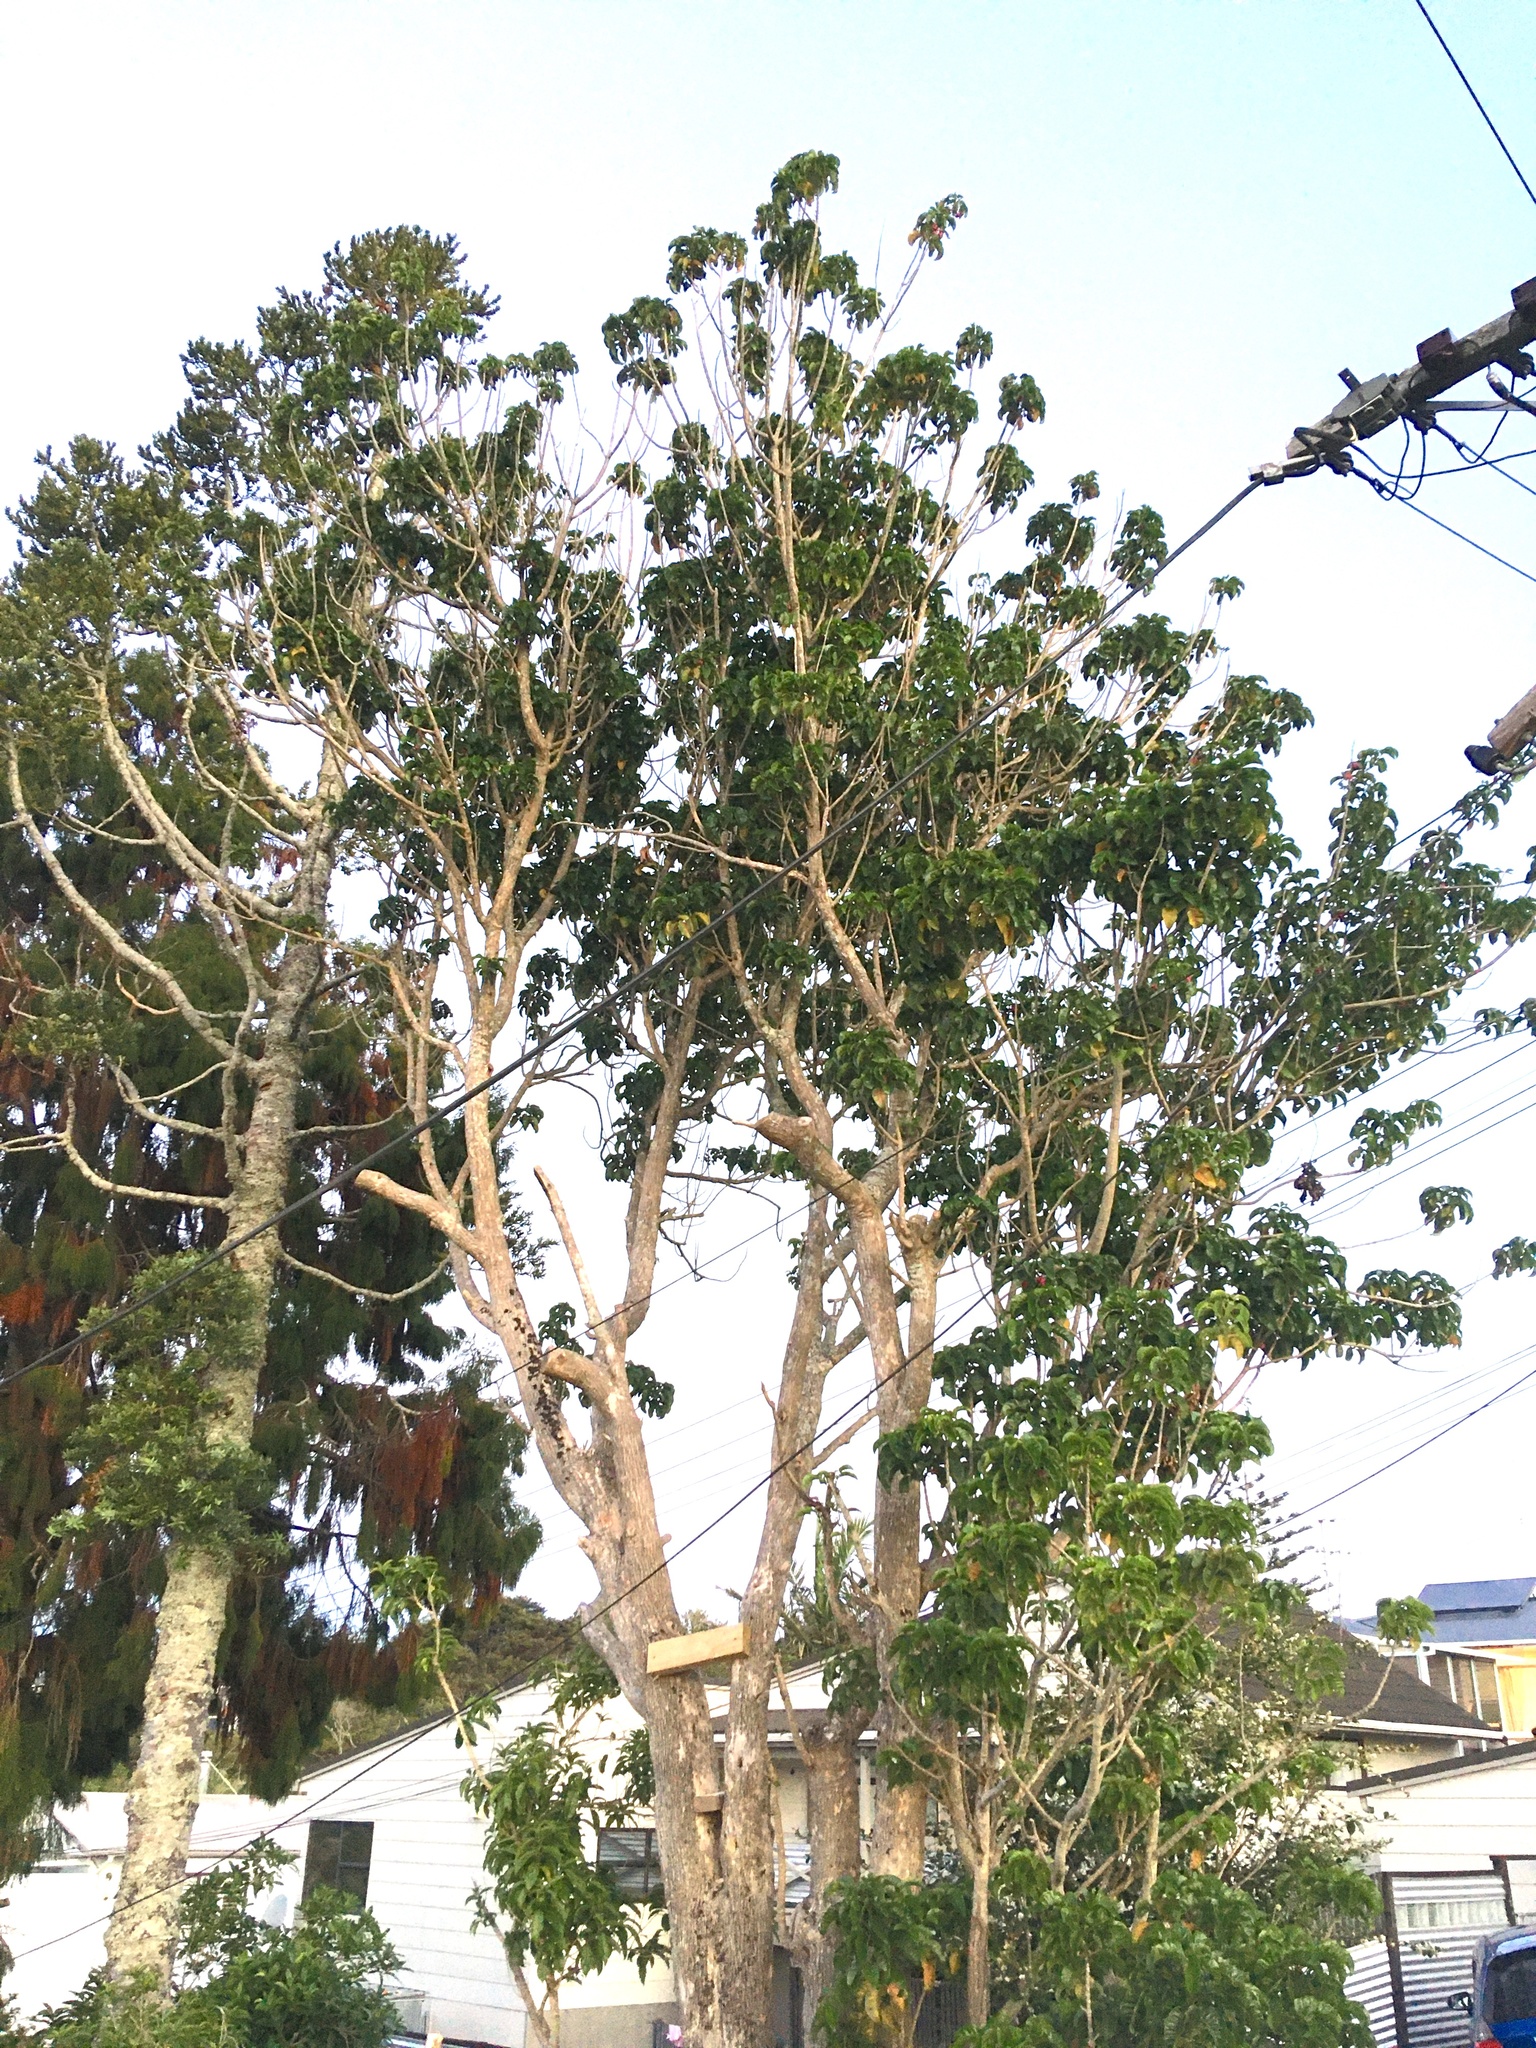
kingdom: Plantae
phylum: Tracheophyta
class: Magnoliopsida
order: Lamiales
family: Lamiaceae
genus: Vitex
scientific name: Vitex lucens
